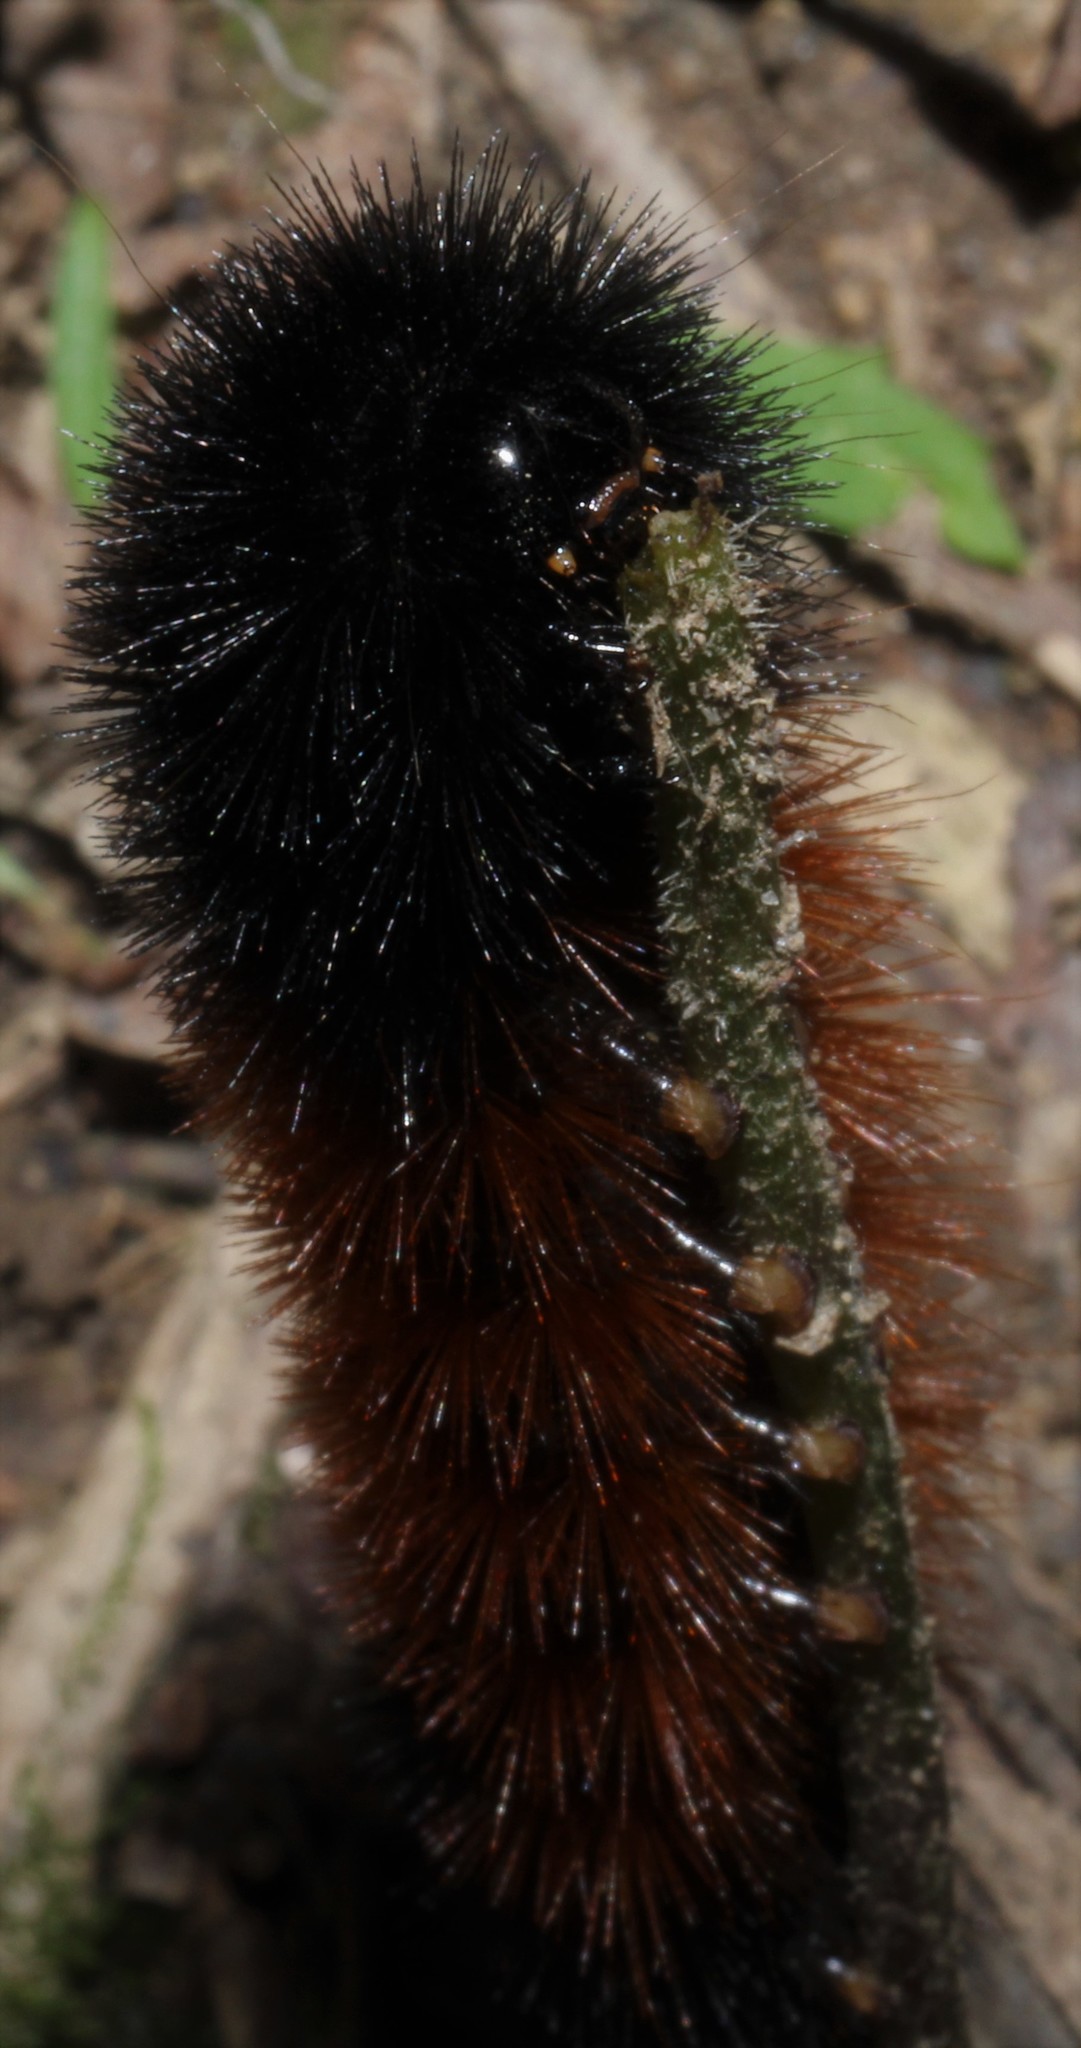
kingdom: Animalia
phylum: Arthropoda
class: Insecta
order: Lepidoptera
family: Erebidae
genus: Pyrrharctia
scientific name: Pyrrharctia isabella
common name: Isabella tiger moth
